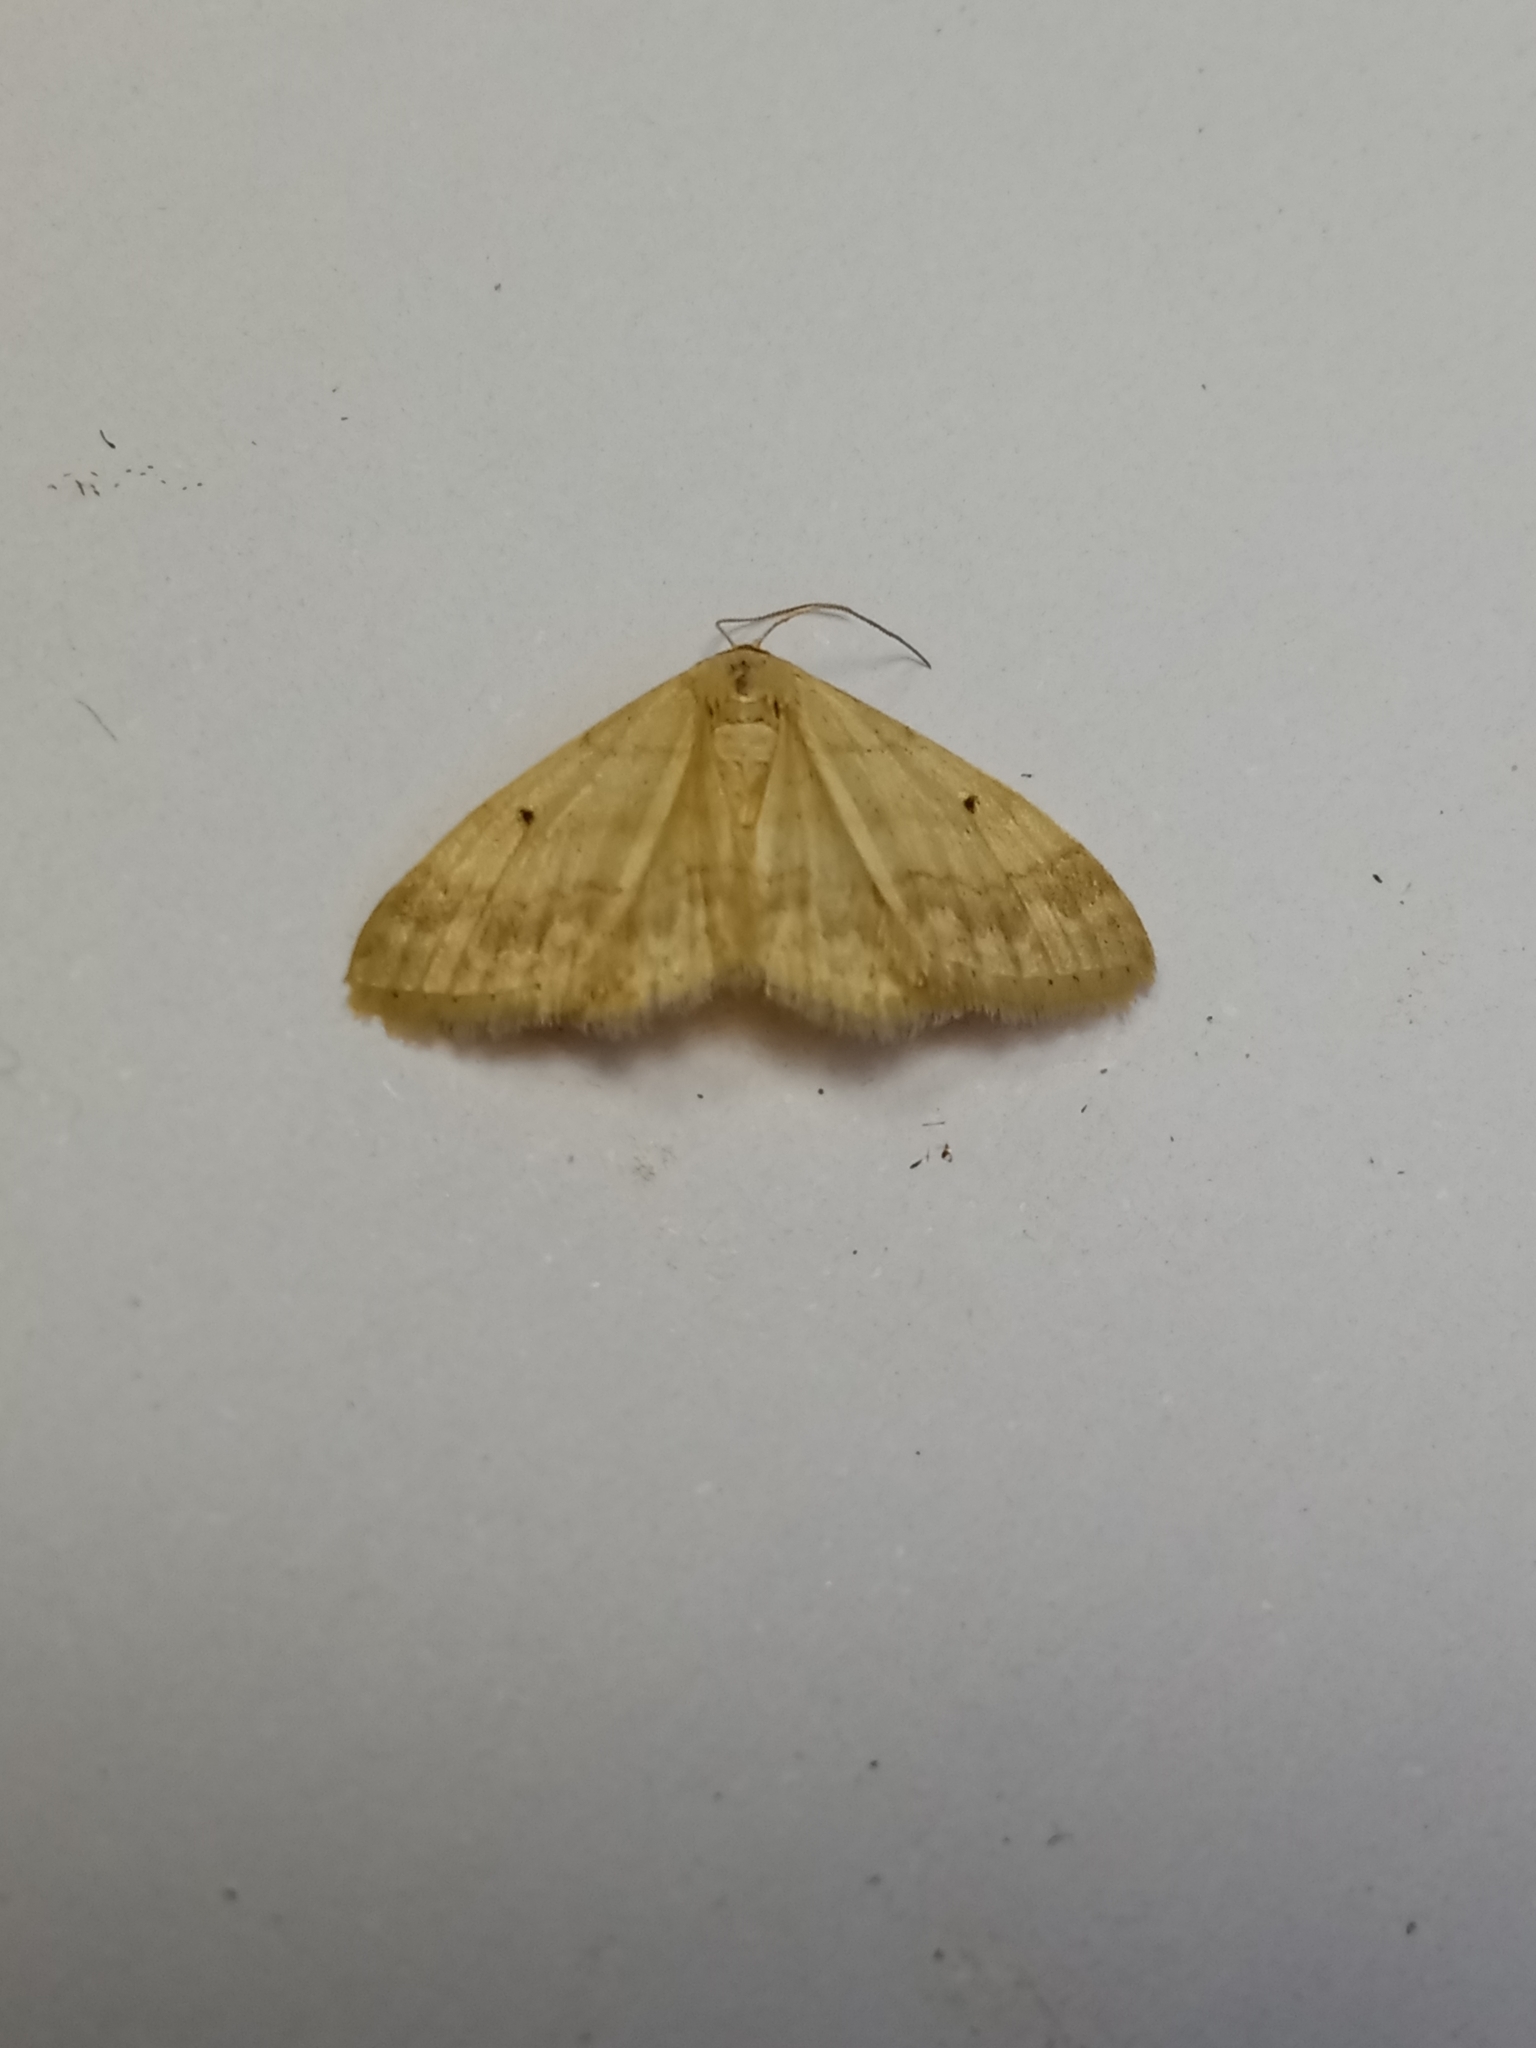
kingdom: Animalia
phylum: Arthropoda
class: Insecta
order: Lepidoptera
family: Geometridae
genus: Idaea
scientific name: Idaea biselata
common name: Small fan-footed wave
